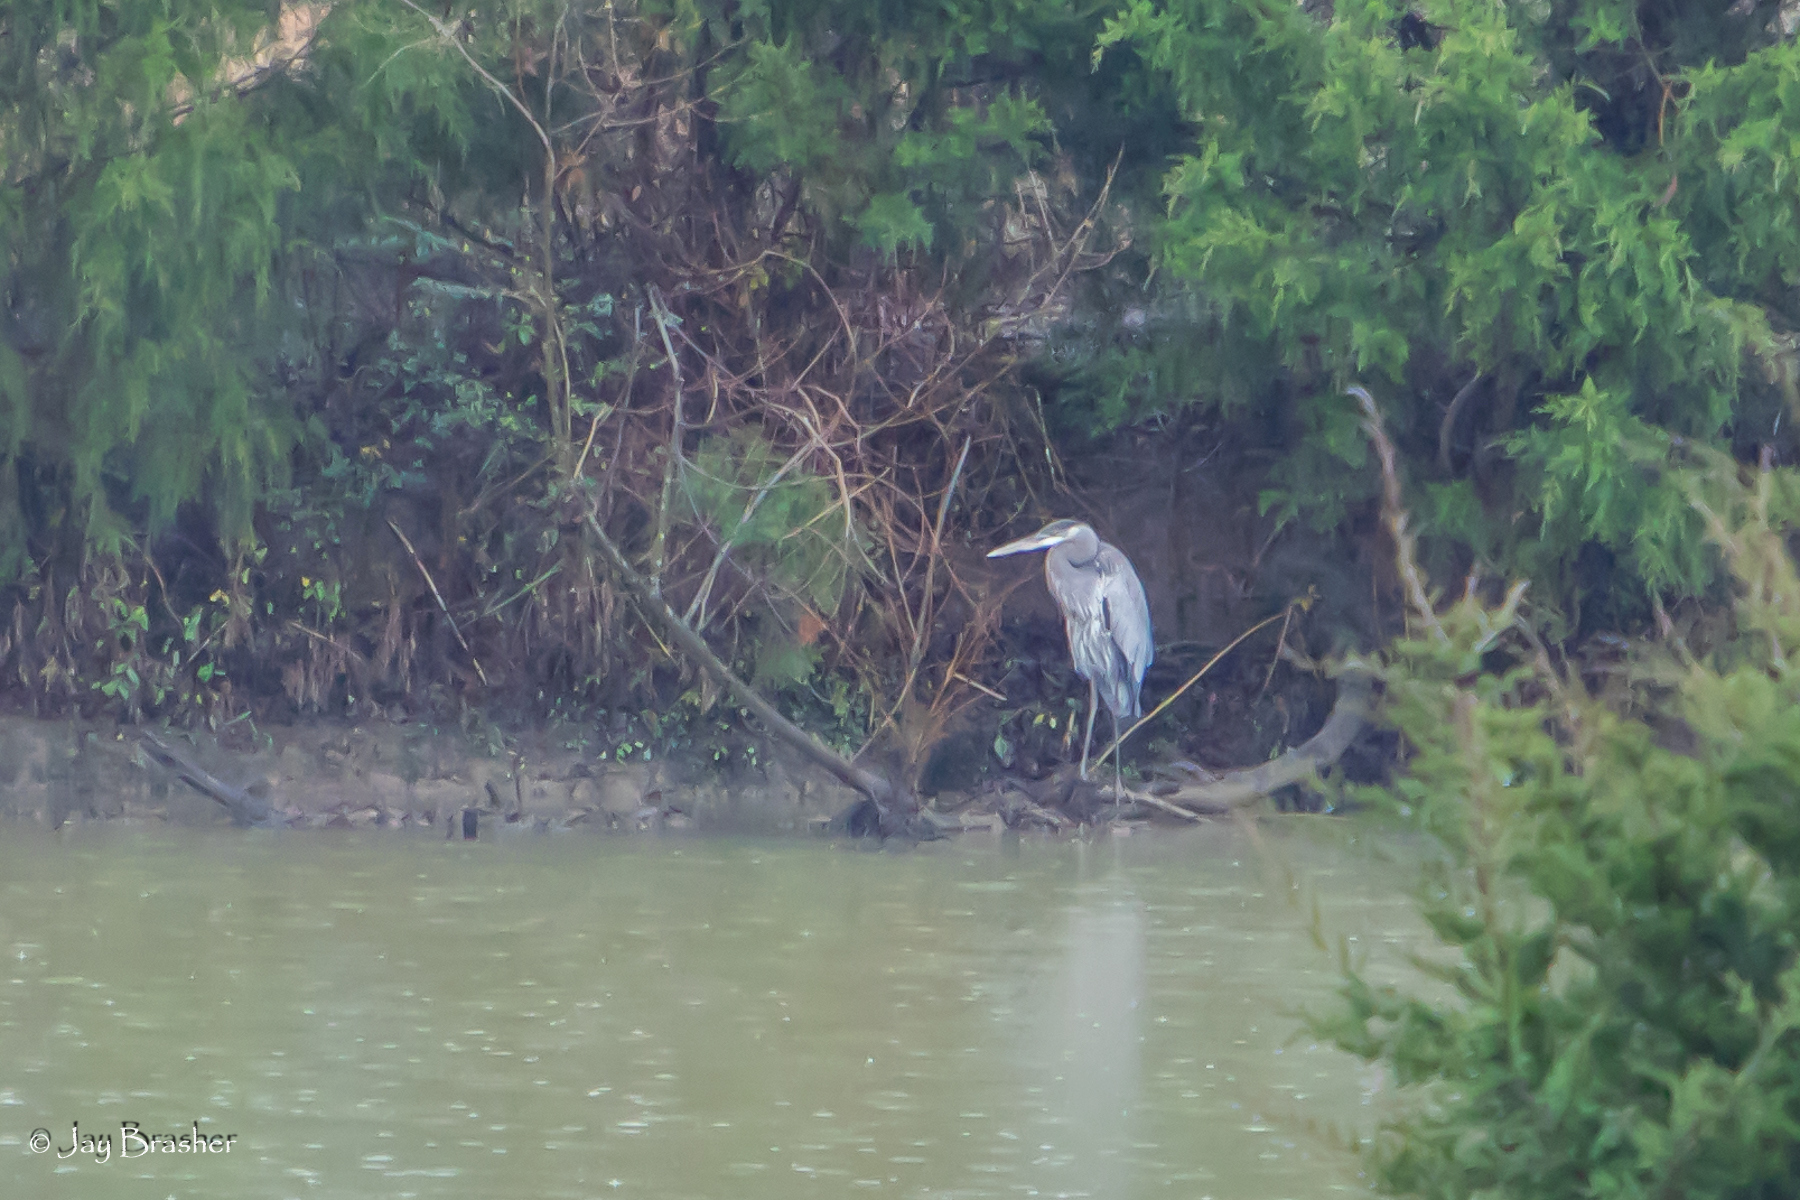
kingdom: Animalia
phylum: Chordata
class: Aves
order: Pelecaniformes
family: Ardeidae
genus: Ardea
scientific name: Ardea herodias
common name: Great blue heron
